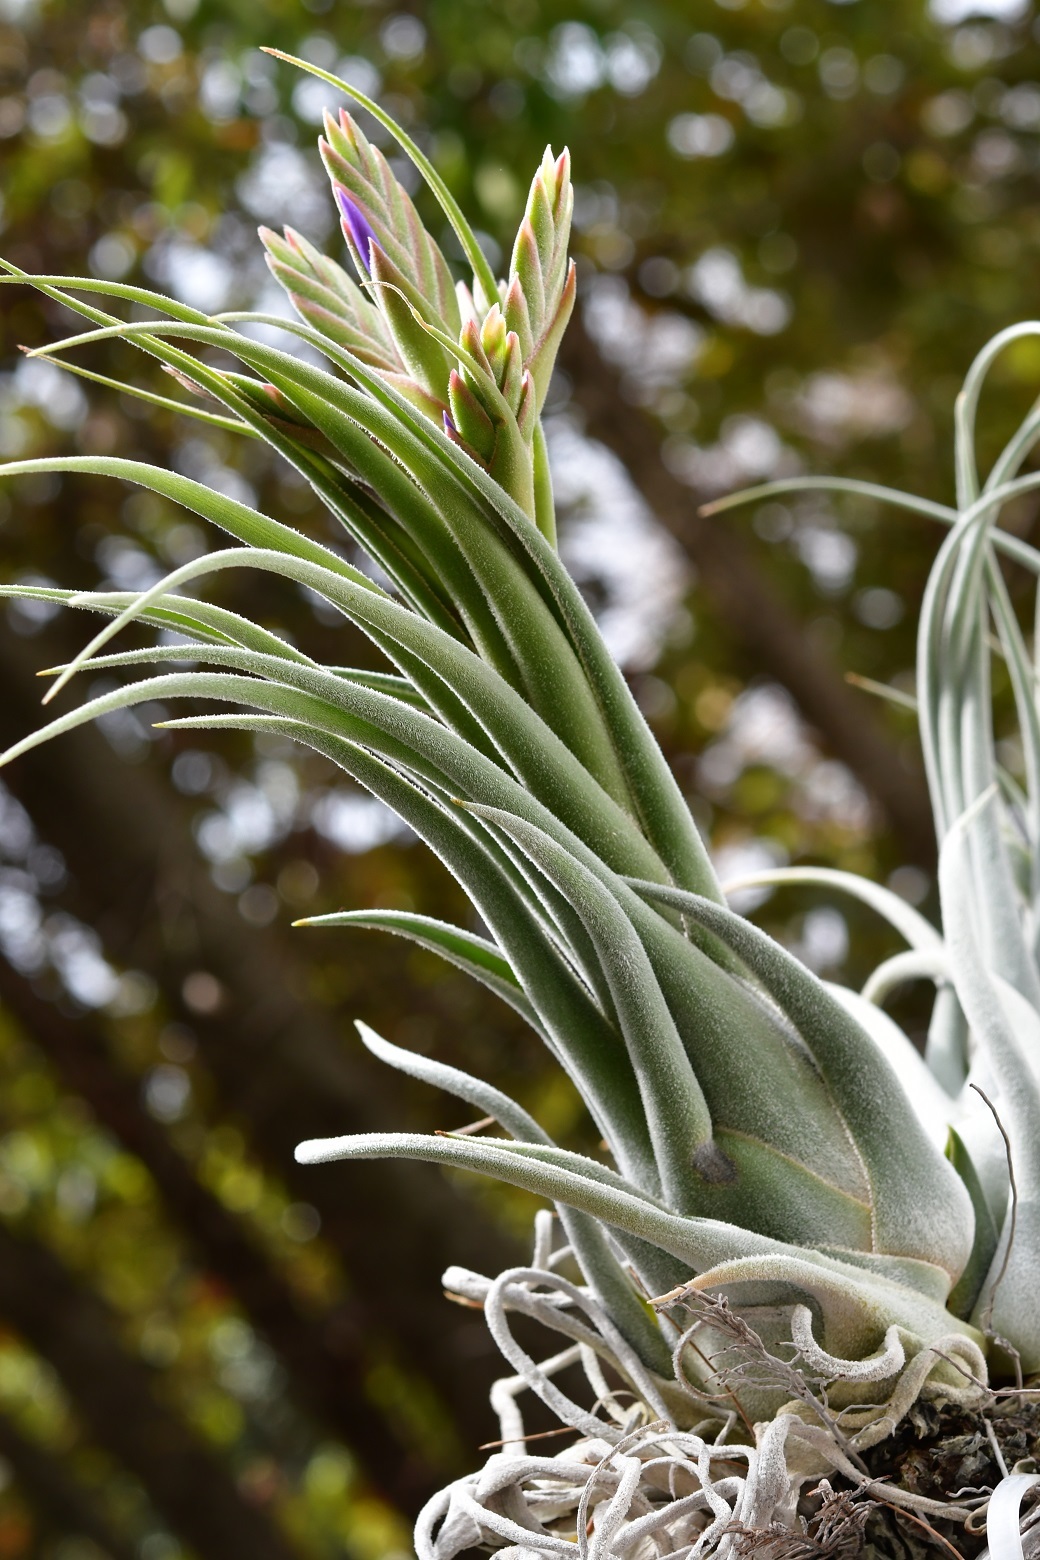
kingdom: Plantae
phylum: Tracheophyta
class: Liliopsida
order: Poales
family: Bromeliaceae
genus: Tillandsia
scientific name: Tillandsia seleriana
